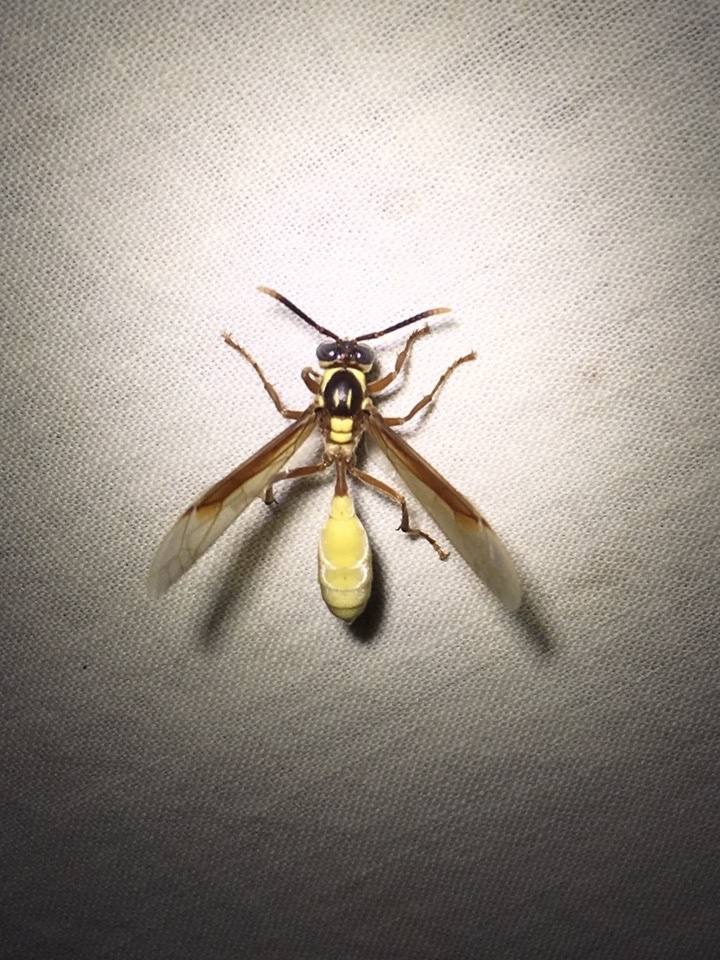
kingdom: Animalia
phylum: Arthropoda
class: Insecta
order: Hymenoptera
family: Vespidae
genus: Apoica
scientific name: Apoica pallens
